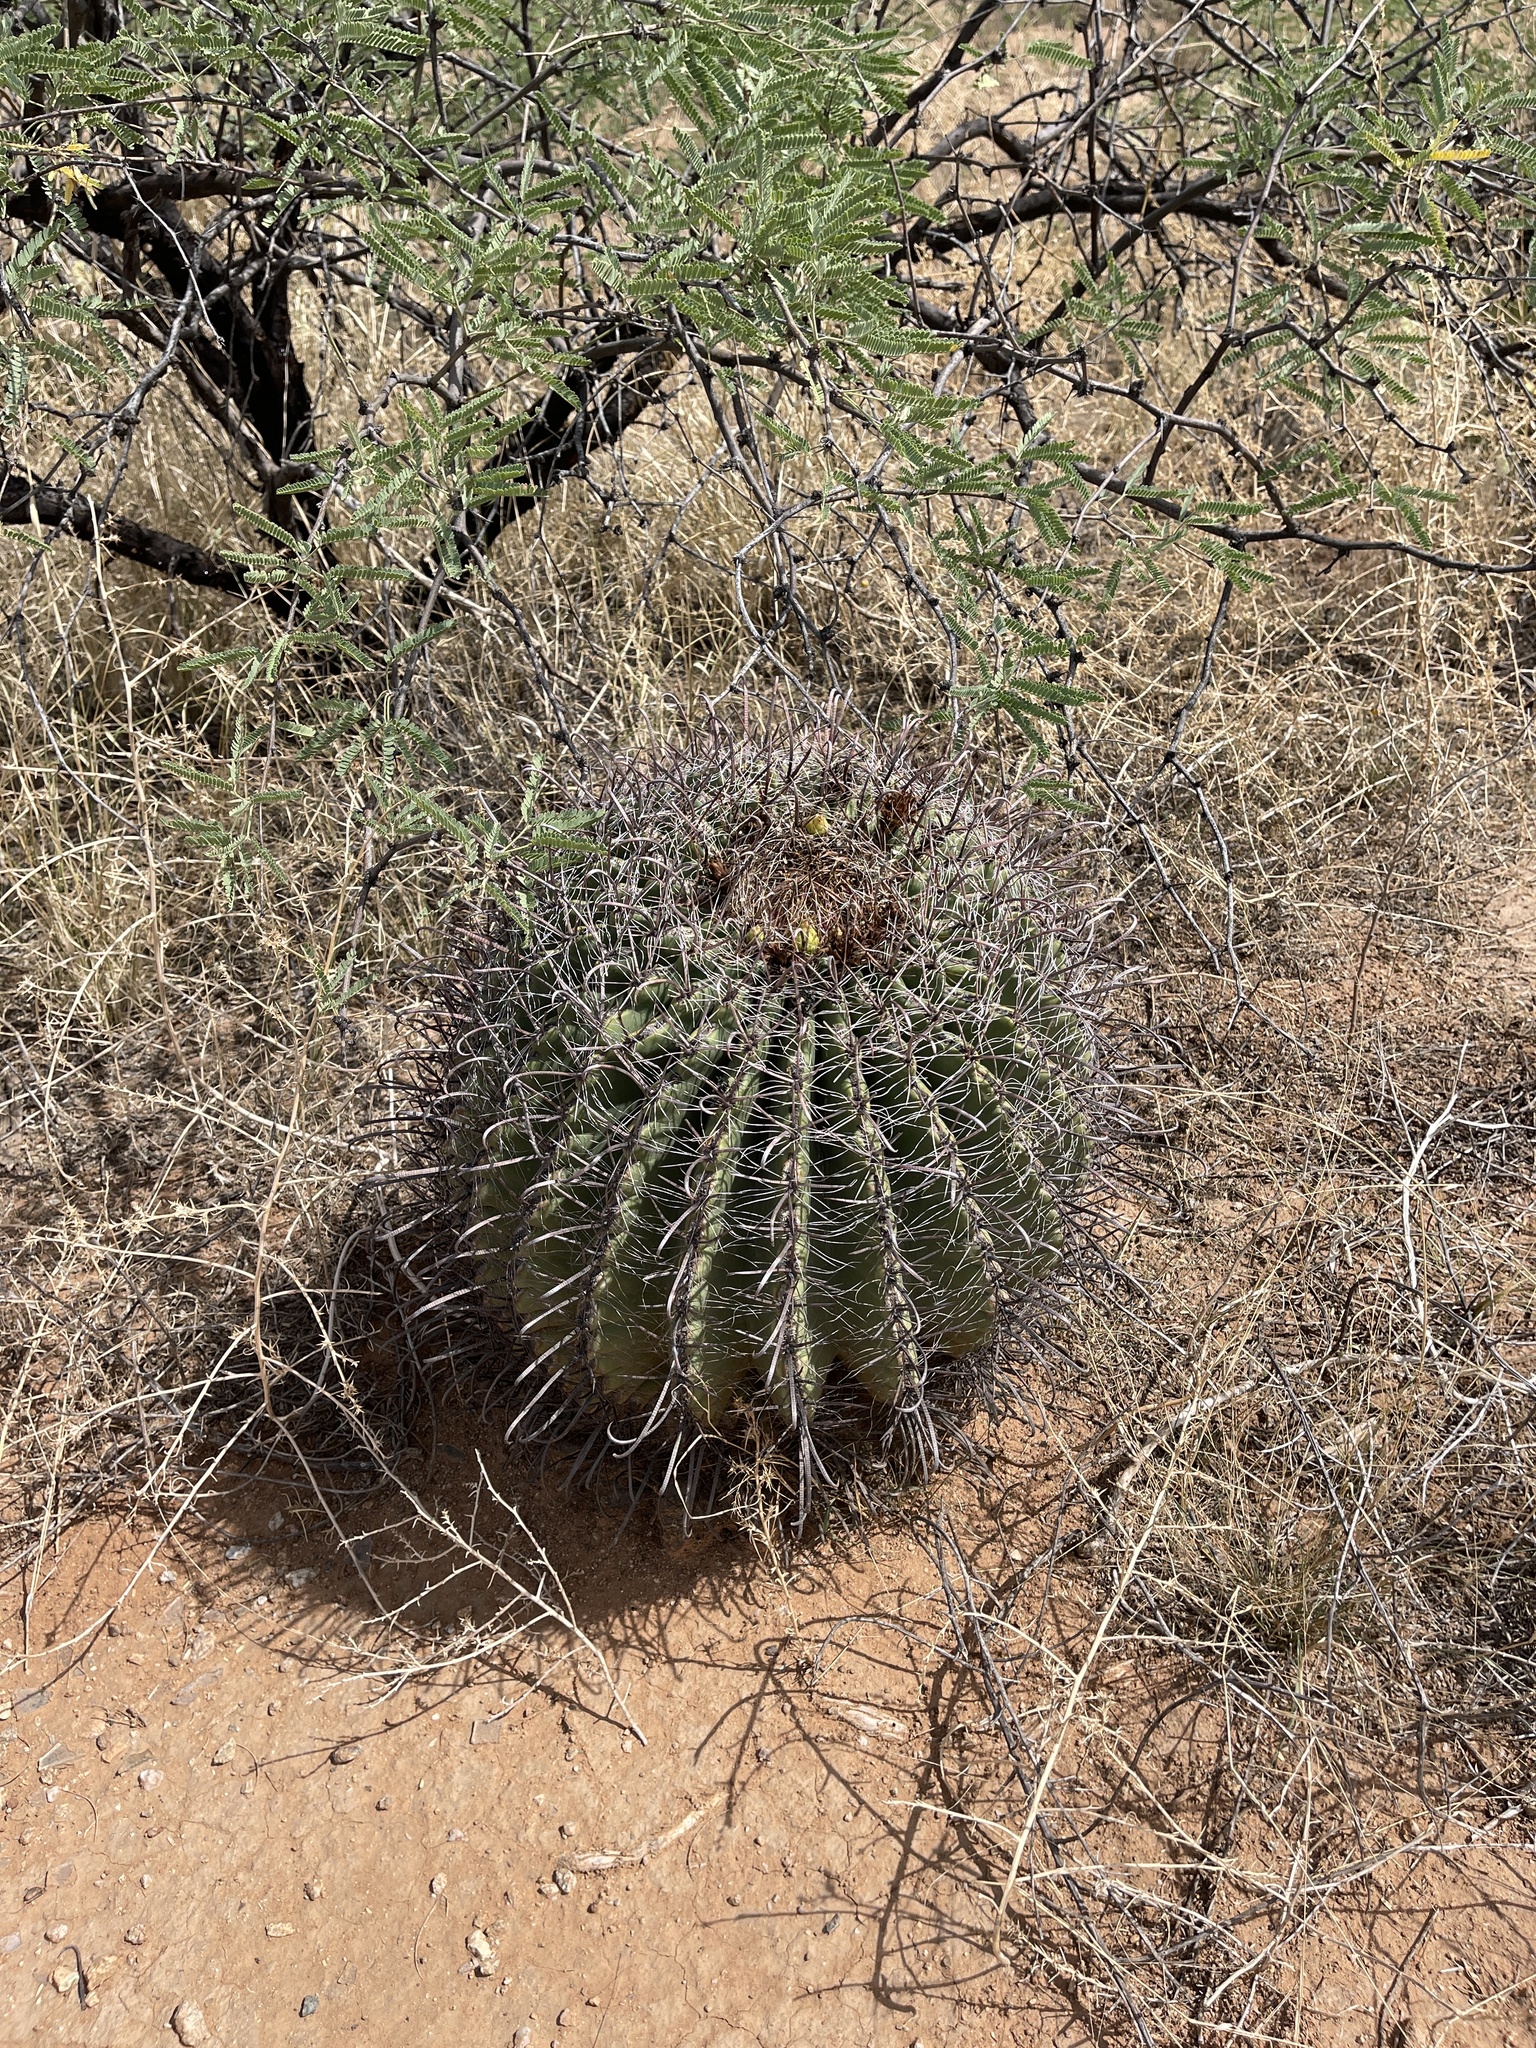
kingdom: Plantae
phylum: Tracheophyta
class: Magnoliopsida
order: Caryophyllales
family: Cactaceae
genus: Ferocactus
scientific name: Ferocactus wislizeni
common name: Candy barrel cactus
